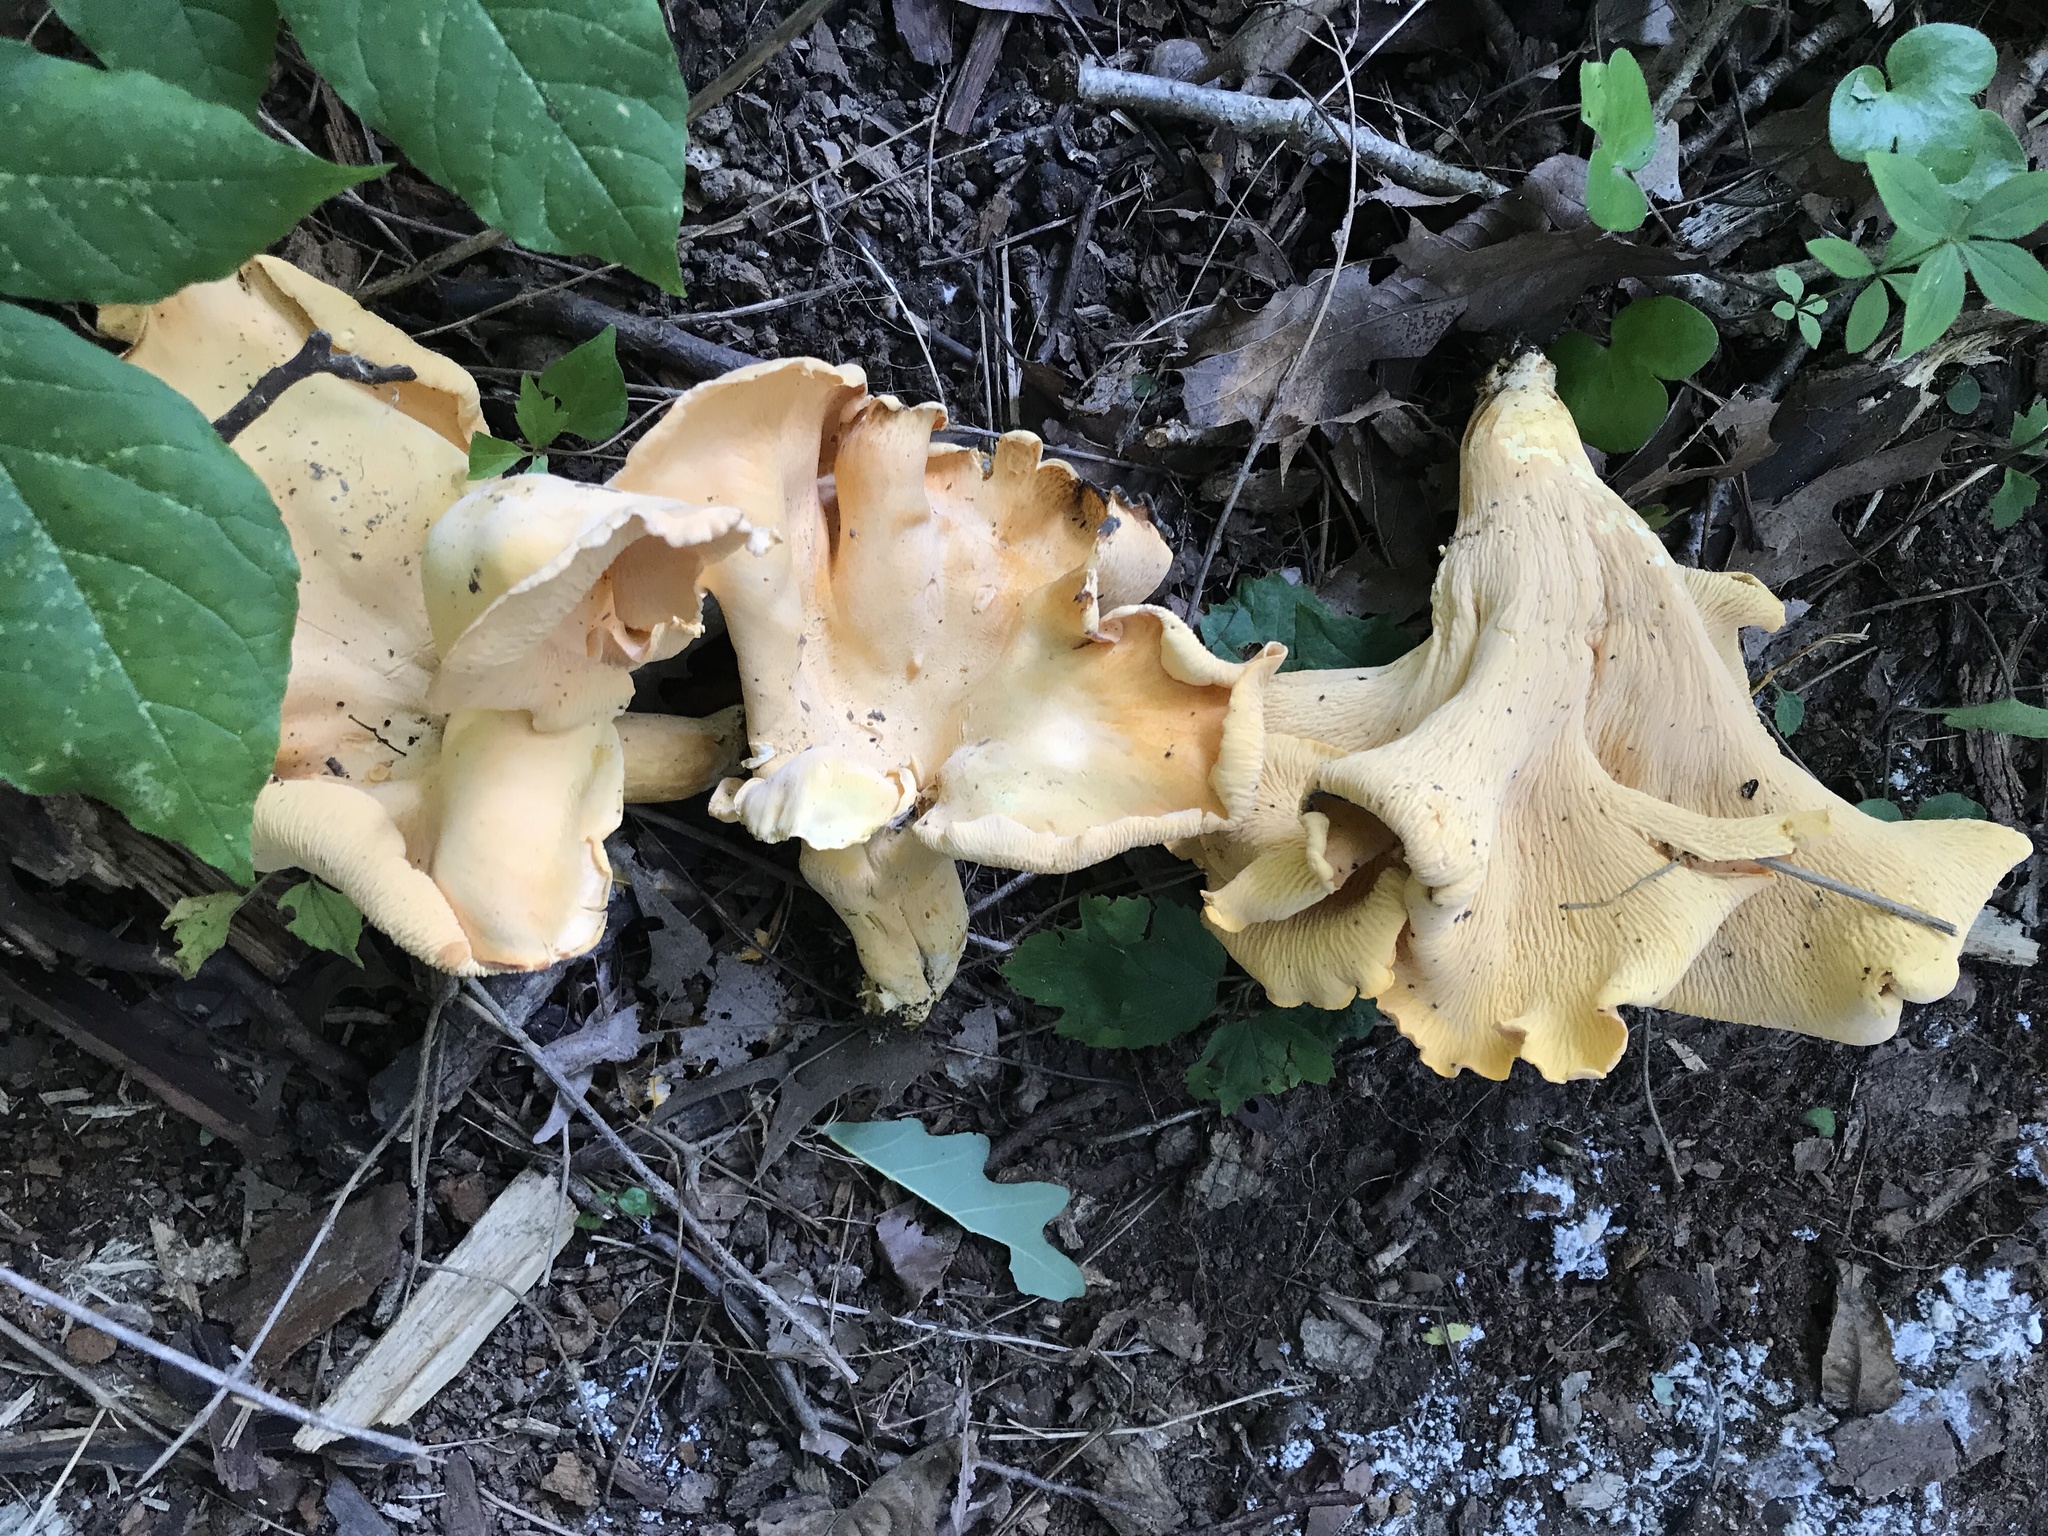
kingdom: Fungi
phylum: Basidiomycota
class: Agaricomycetes
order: Cantharellales
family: Hydnaceae
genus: Cantharellus
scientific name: Cantharellus flavolateritius
